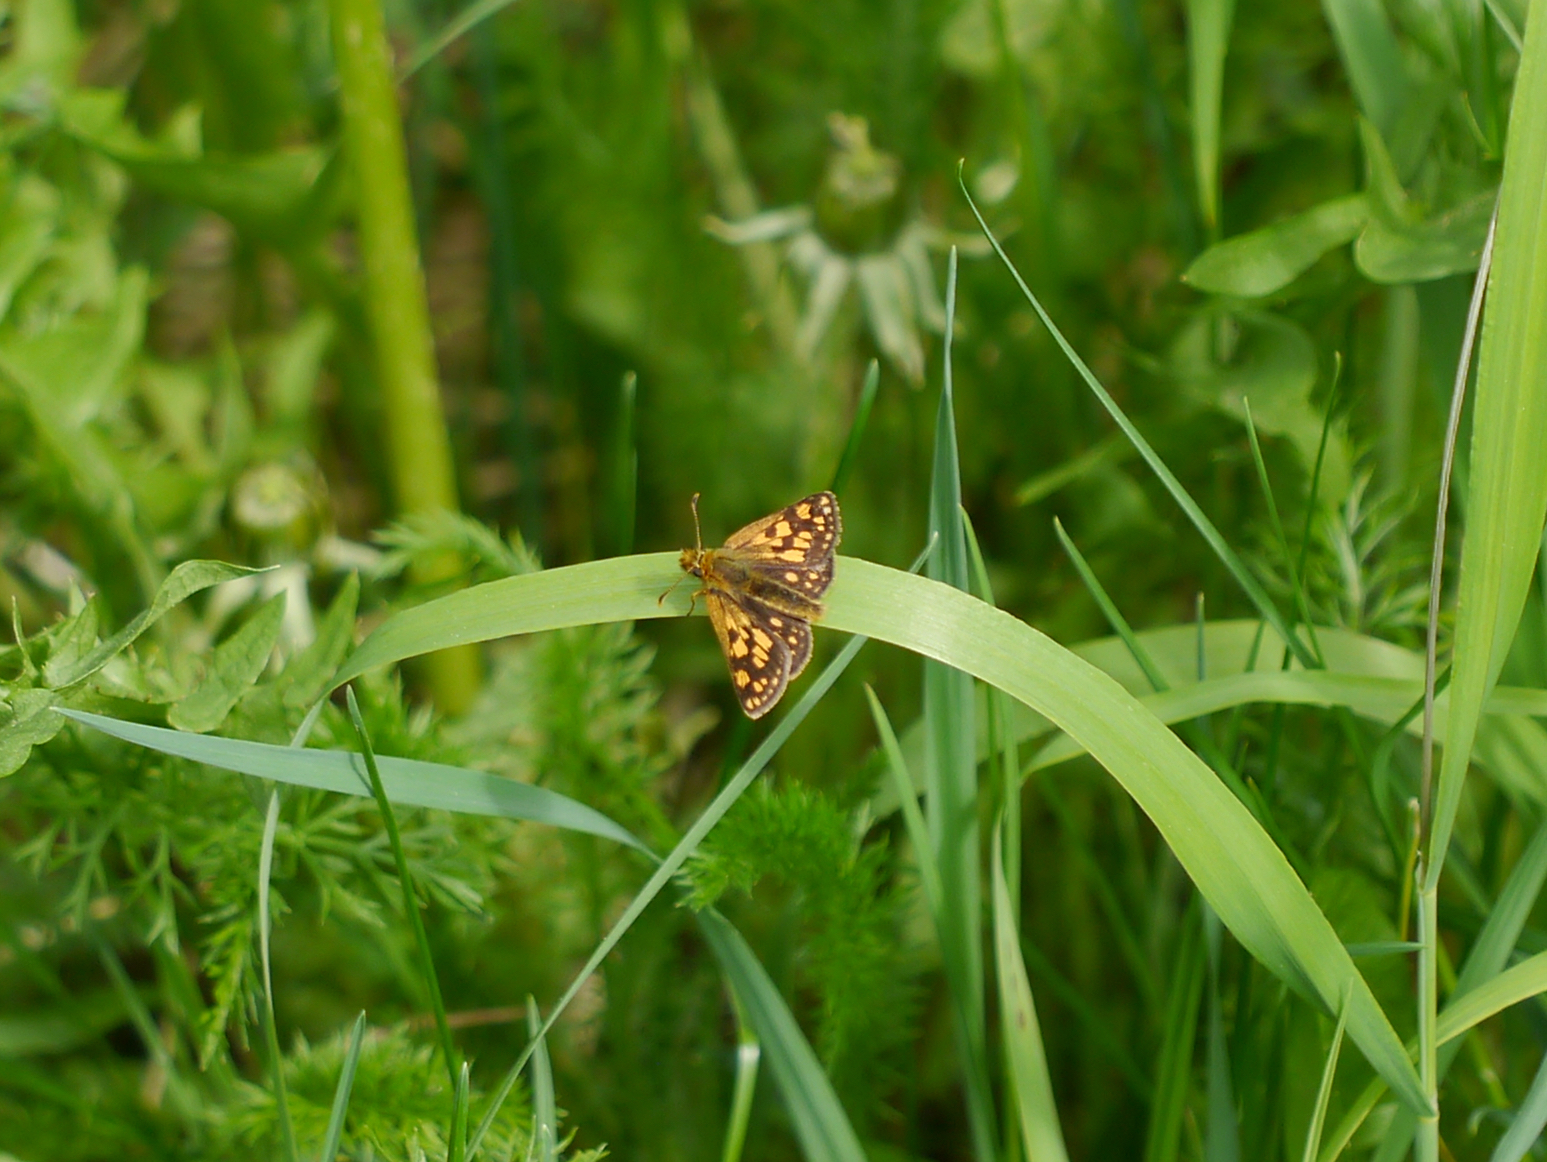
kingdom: Animalia
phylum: Arthropoda
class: Insecta
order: Lepidoptera
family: Hesperiidae
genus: Carterocephalus
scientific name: Carterocephalus skada
